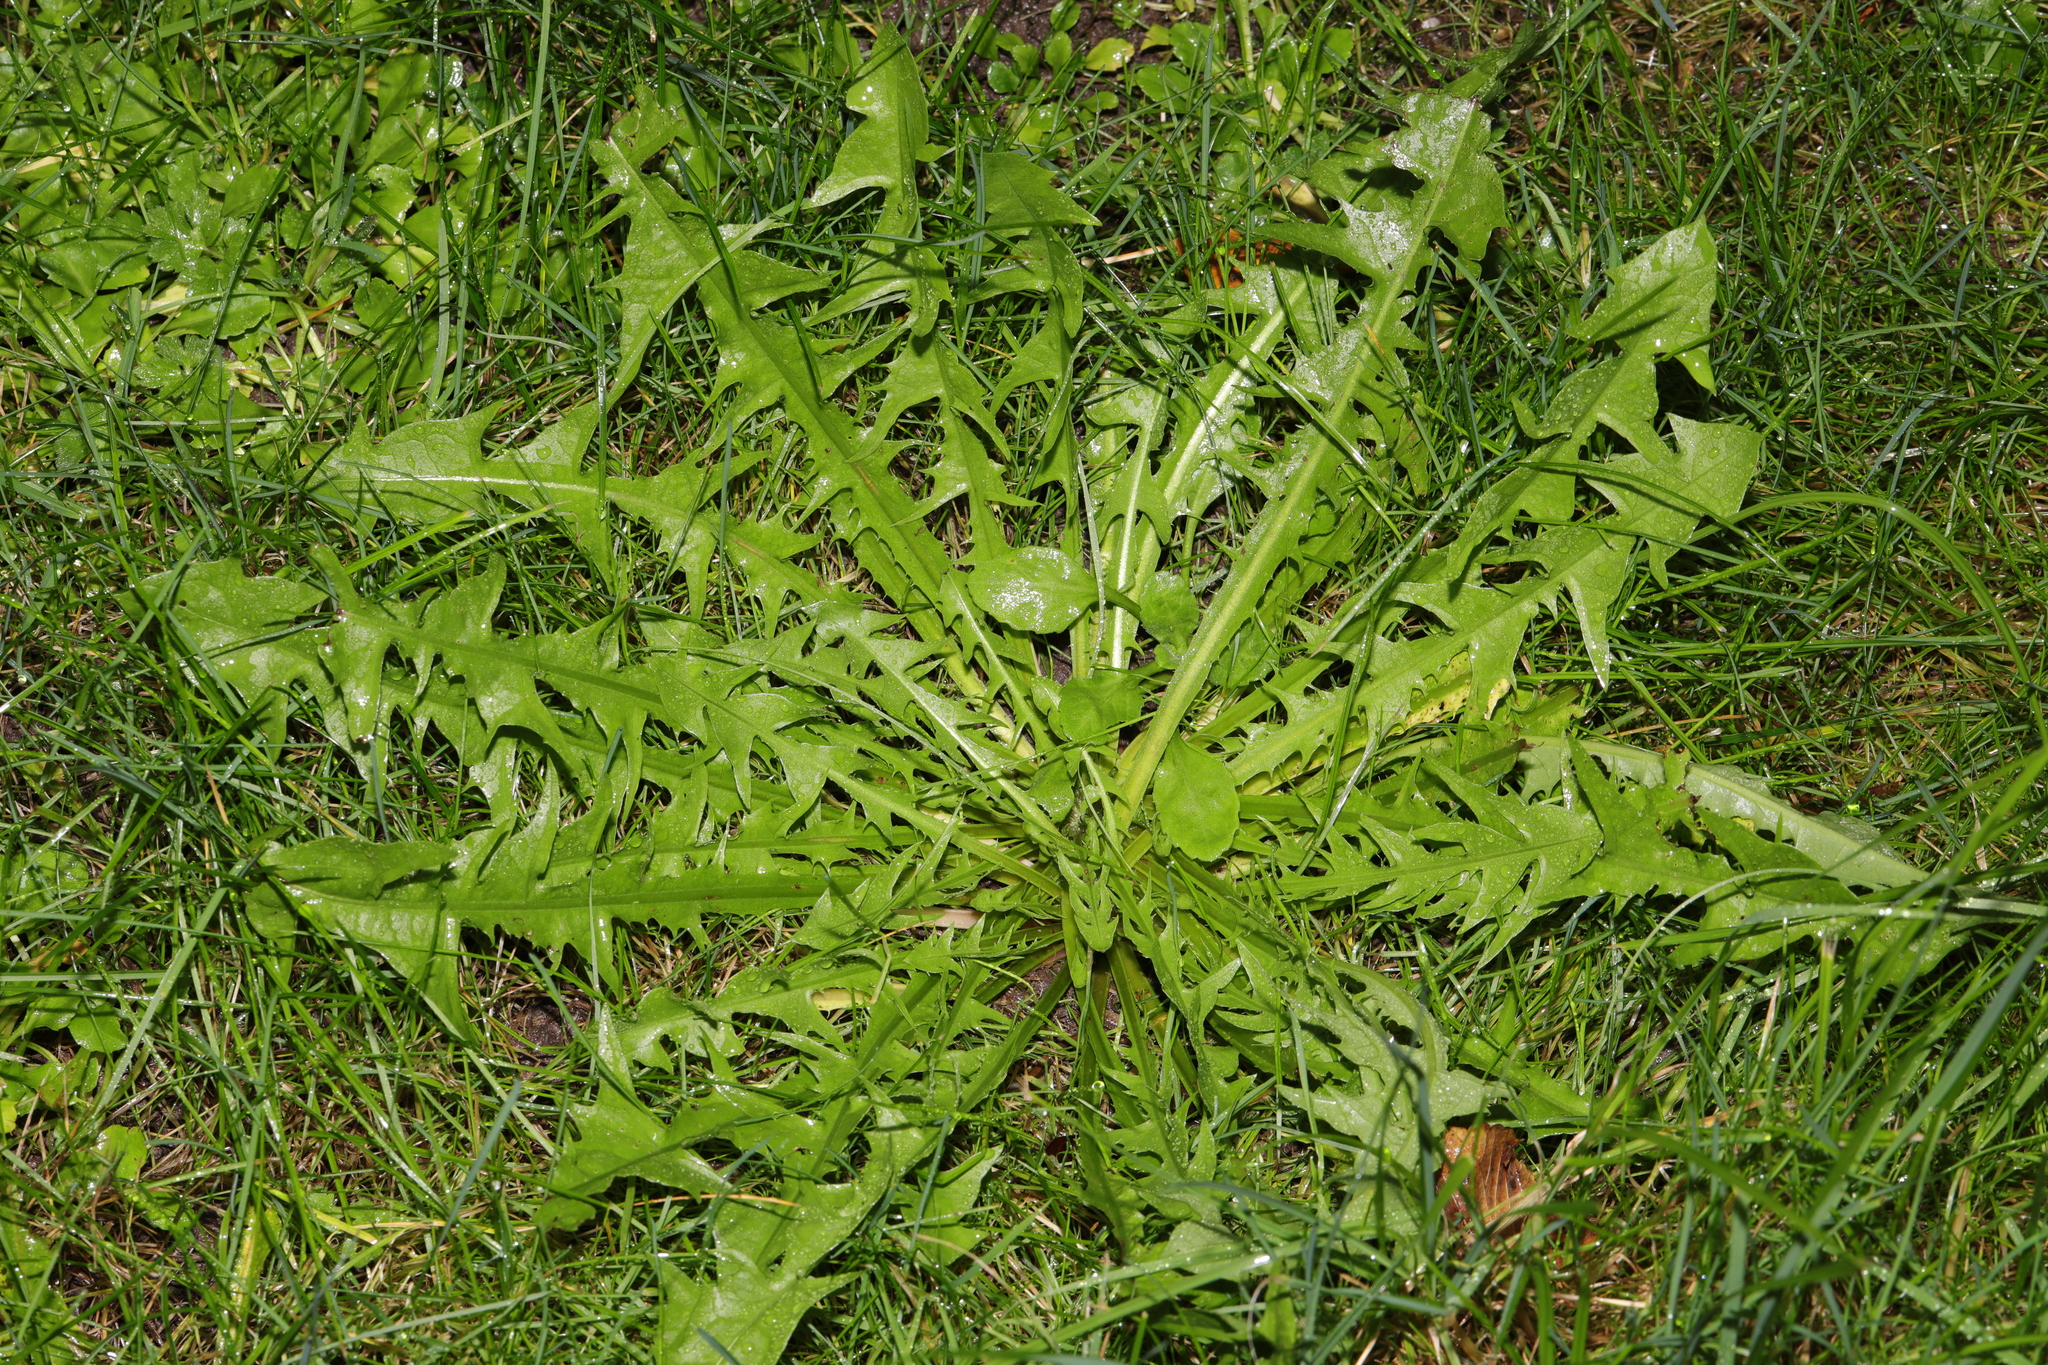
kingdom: Plantae
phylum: Tracheophyta
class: Magnoliopsida
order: Asterales
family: Asteraceae
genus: Taraxacum
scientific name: Taraxacum officinale
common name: Common dandelion
